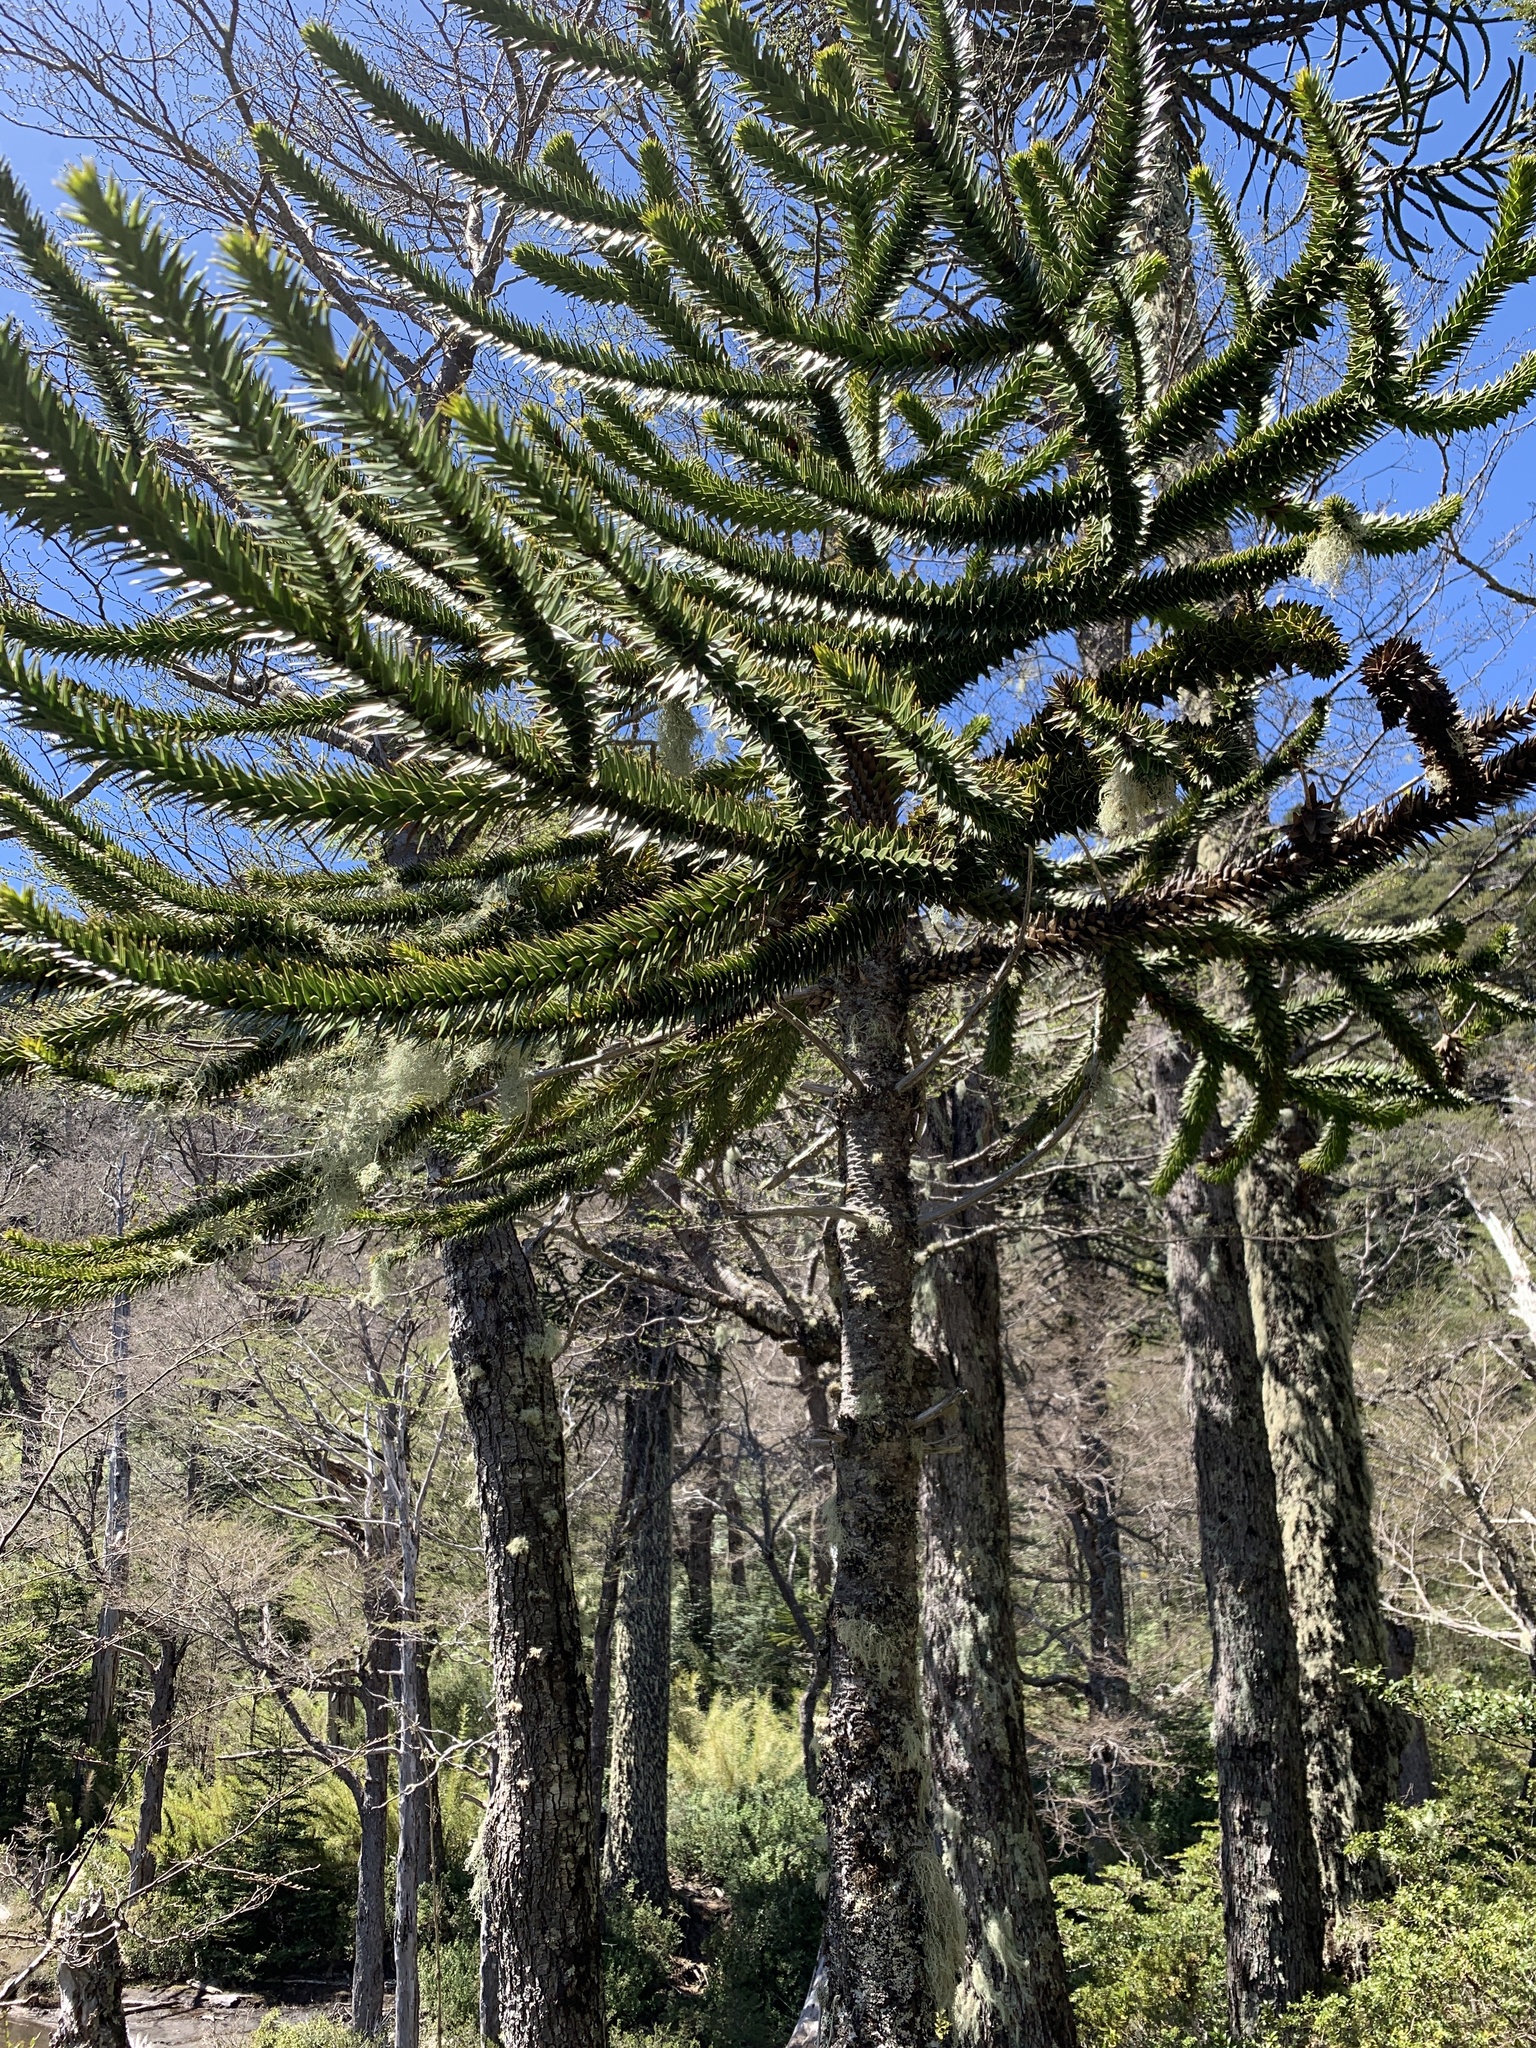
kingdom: Plantae
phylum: Tracheophyta
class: Pinopsida
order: Pinales
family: Araucariaceae
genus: Araucaria
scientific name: Araucaria araucana
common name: Monkey-puzzle
